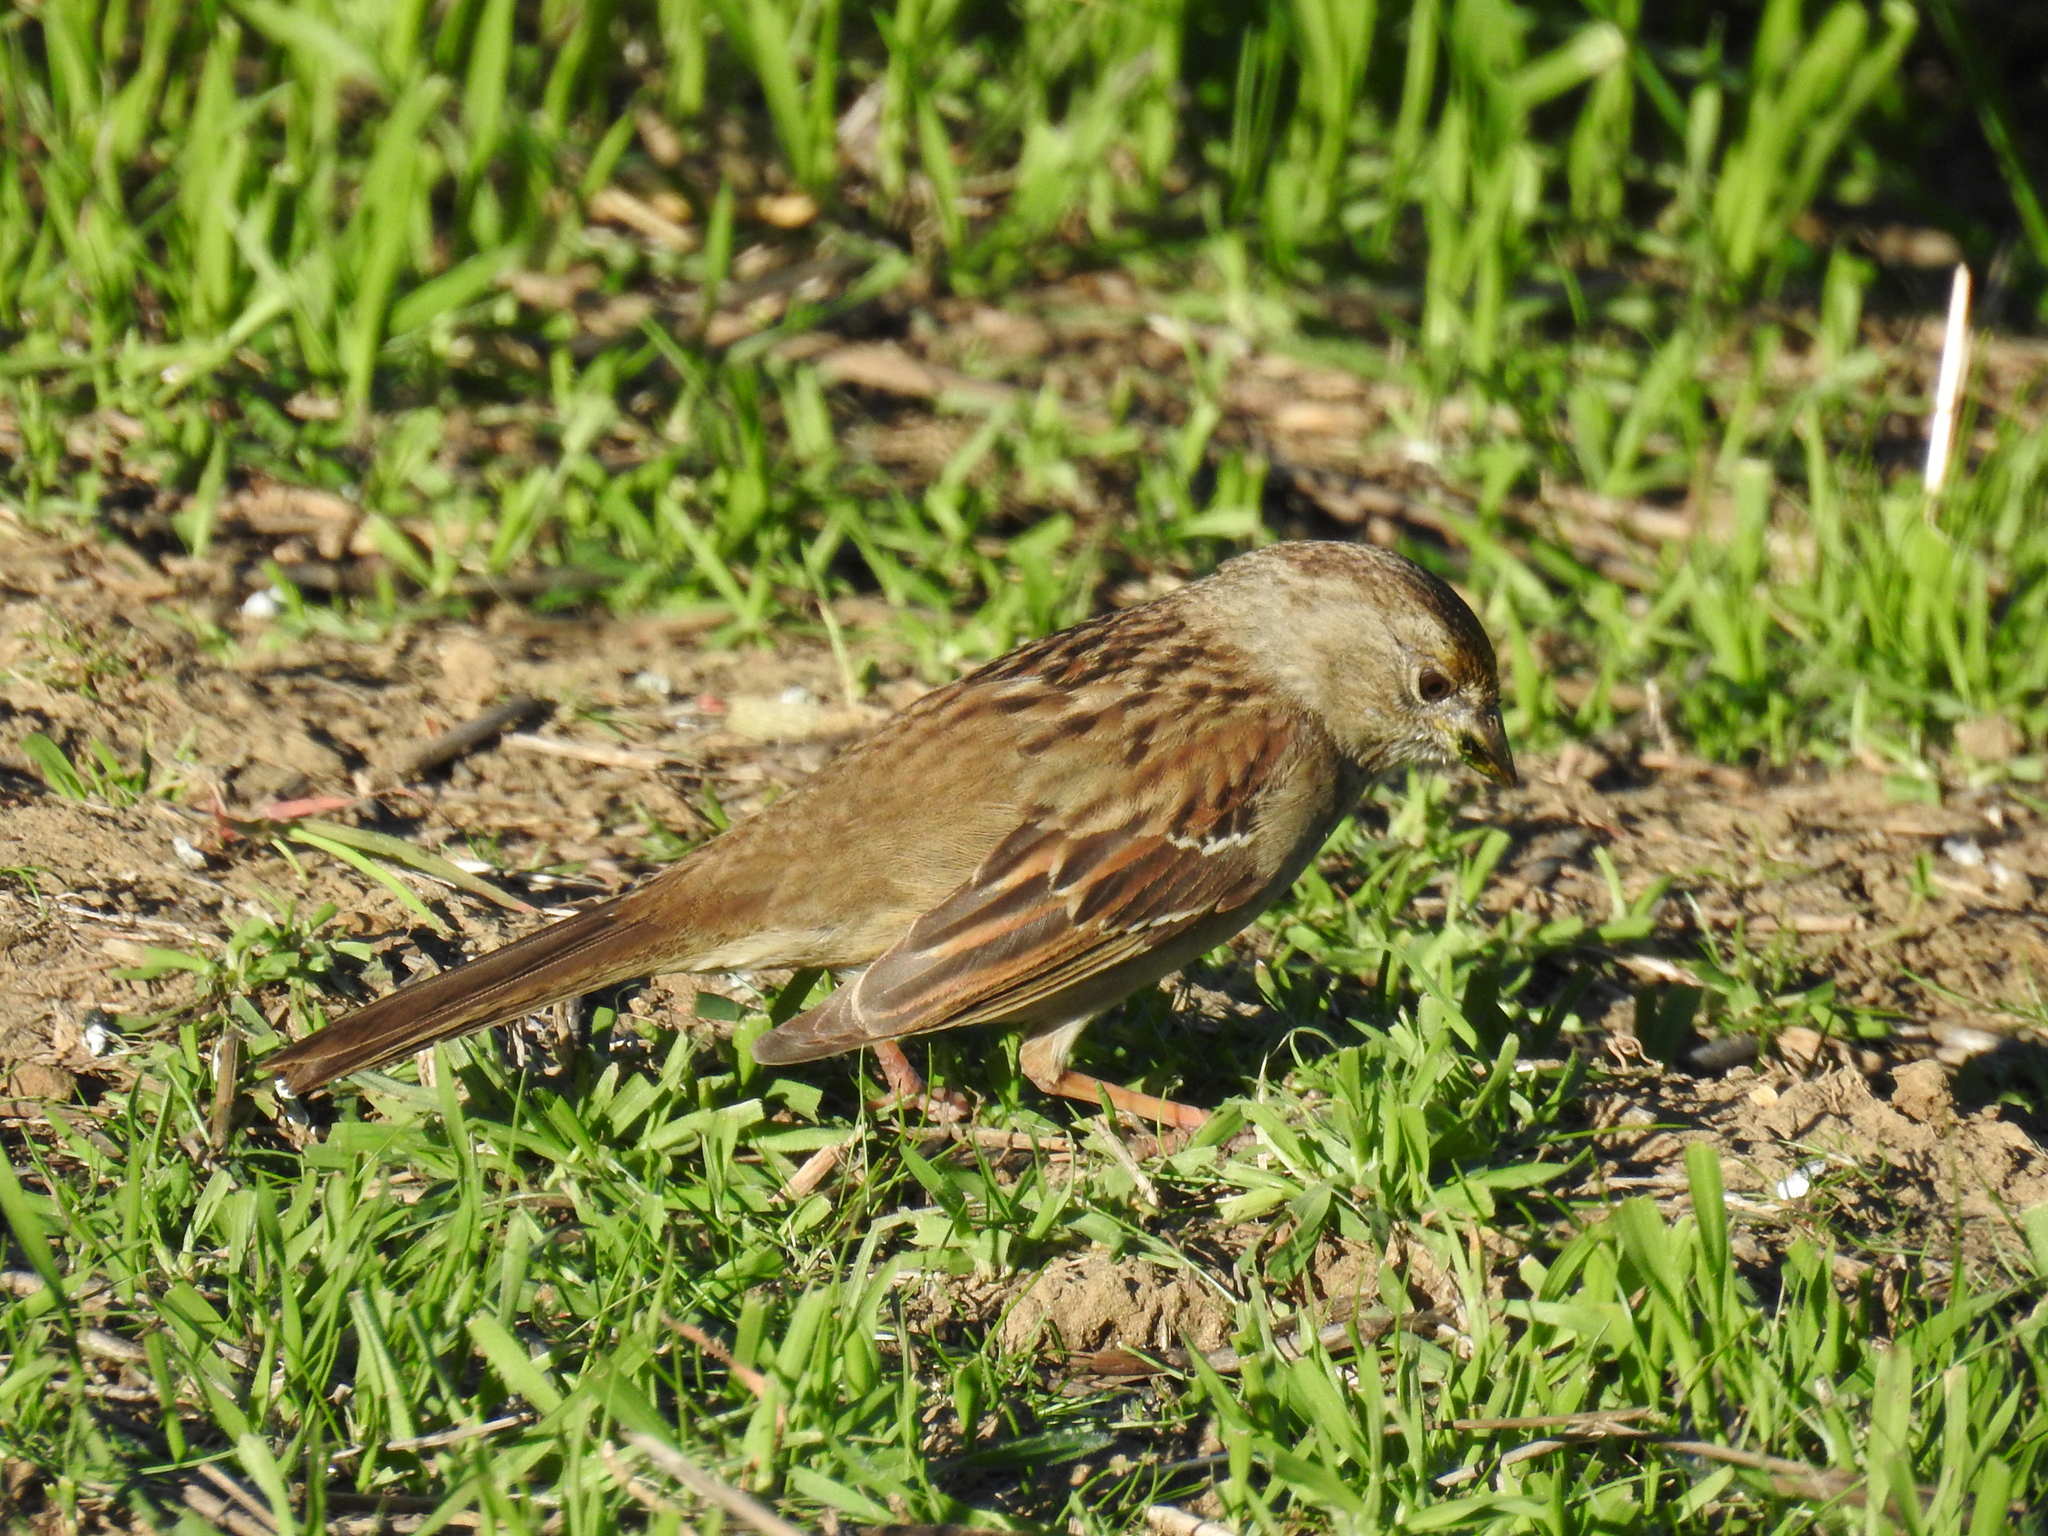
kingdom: Animalia
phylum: Chordata
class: Aves
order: Passeriformes
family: Passerellidae
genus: Zonotrichia
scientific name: Zonotrichia atricapilla
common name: Golden-crowned sparrow
